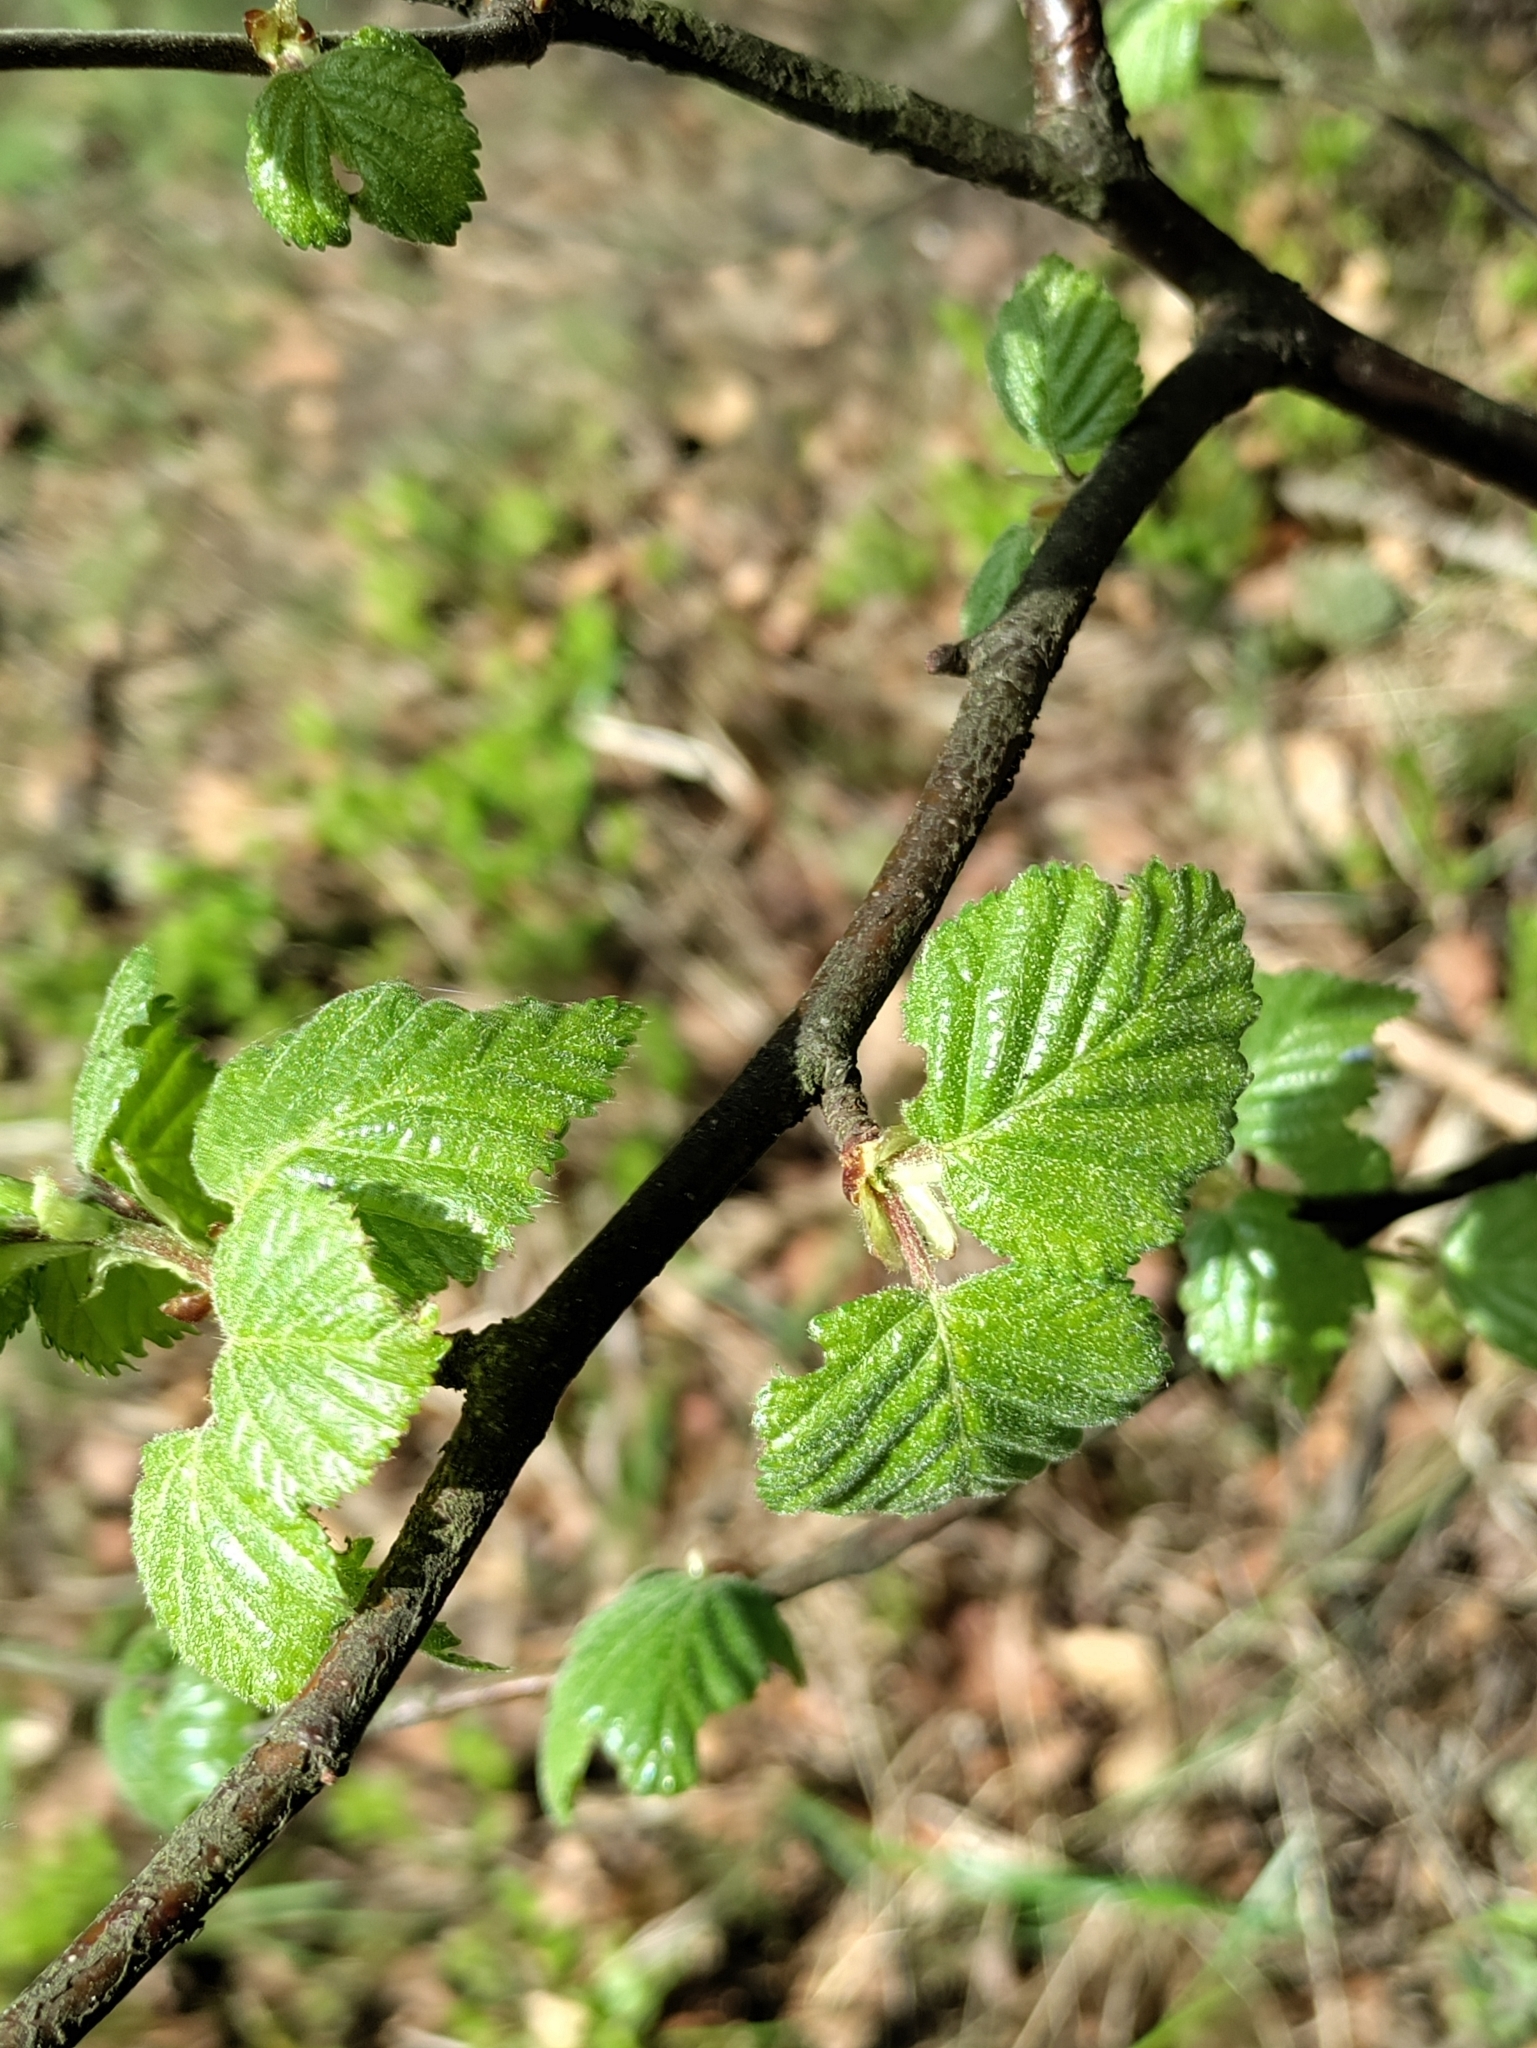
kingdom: Plantae
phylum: Tracheophyta
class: Magnoliopsida
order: Fagales
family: Betulaceae
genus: Betula
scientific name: Betula pubescens
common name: Downy birch
